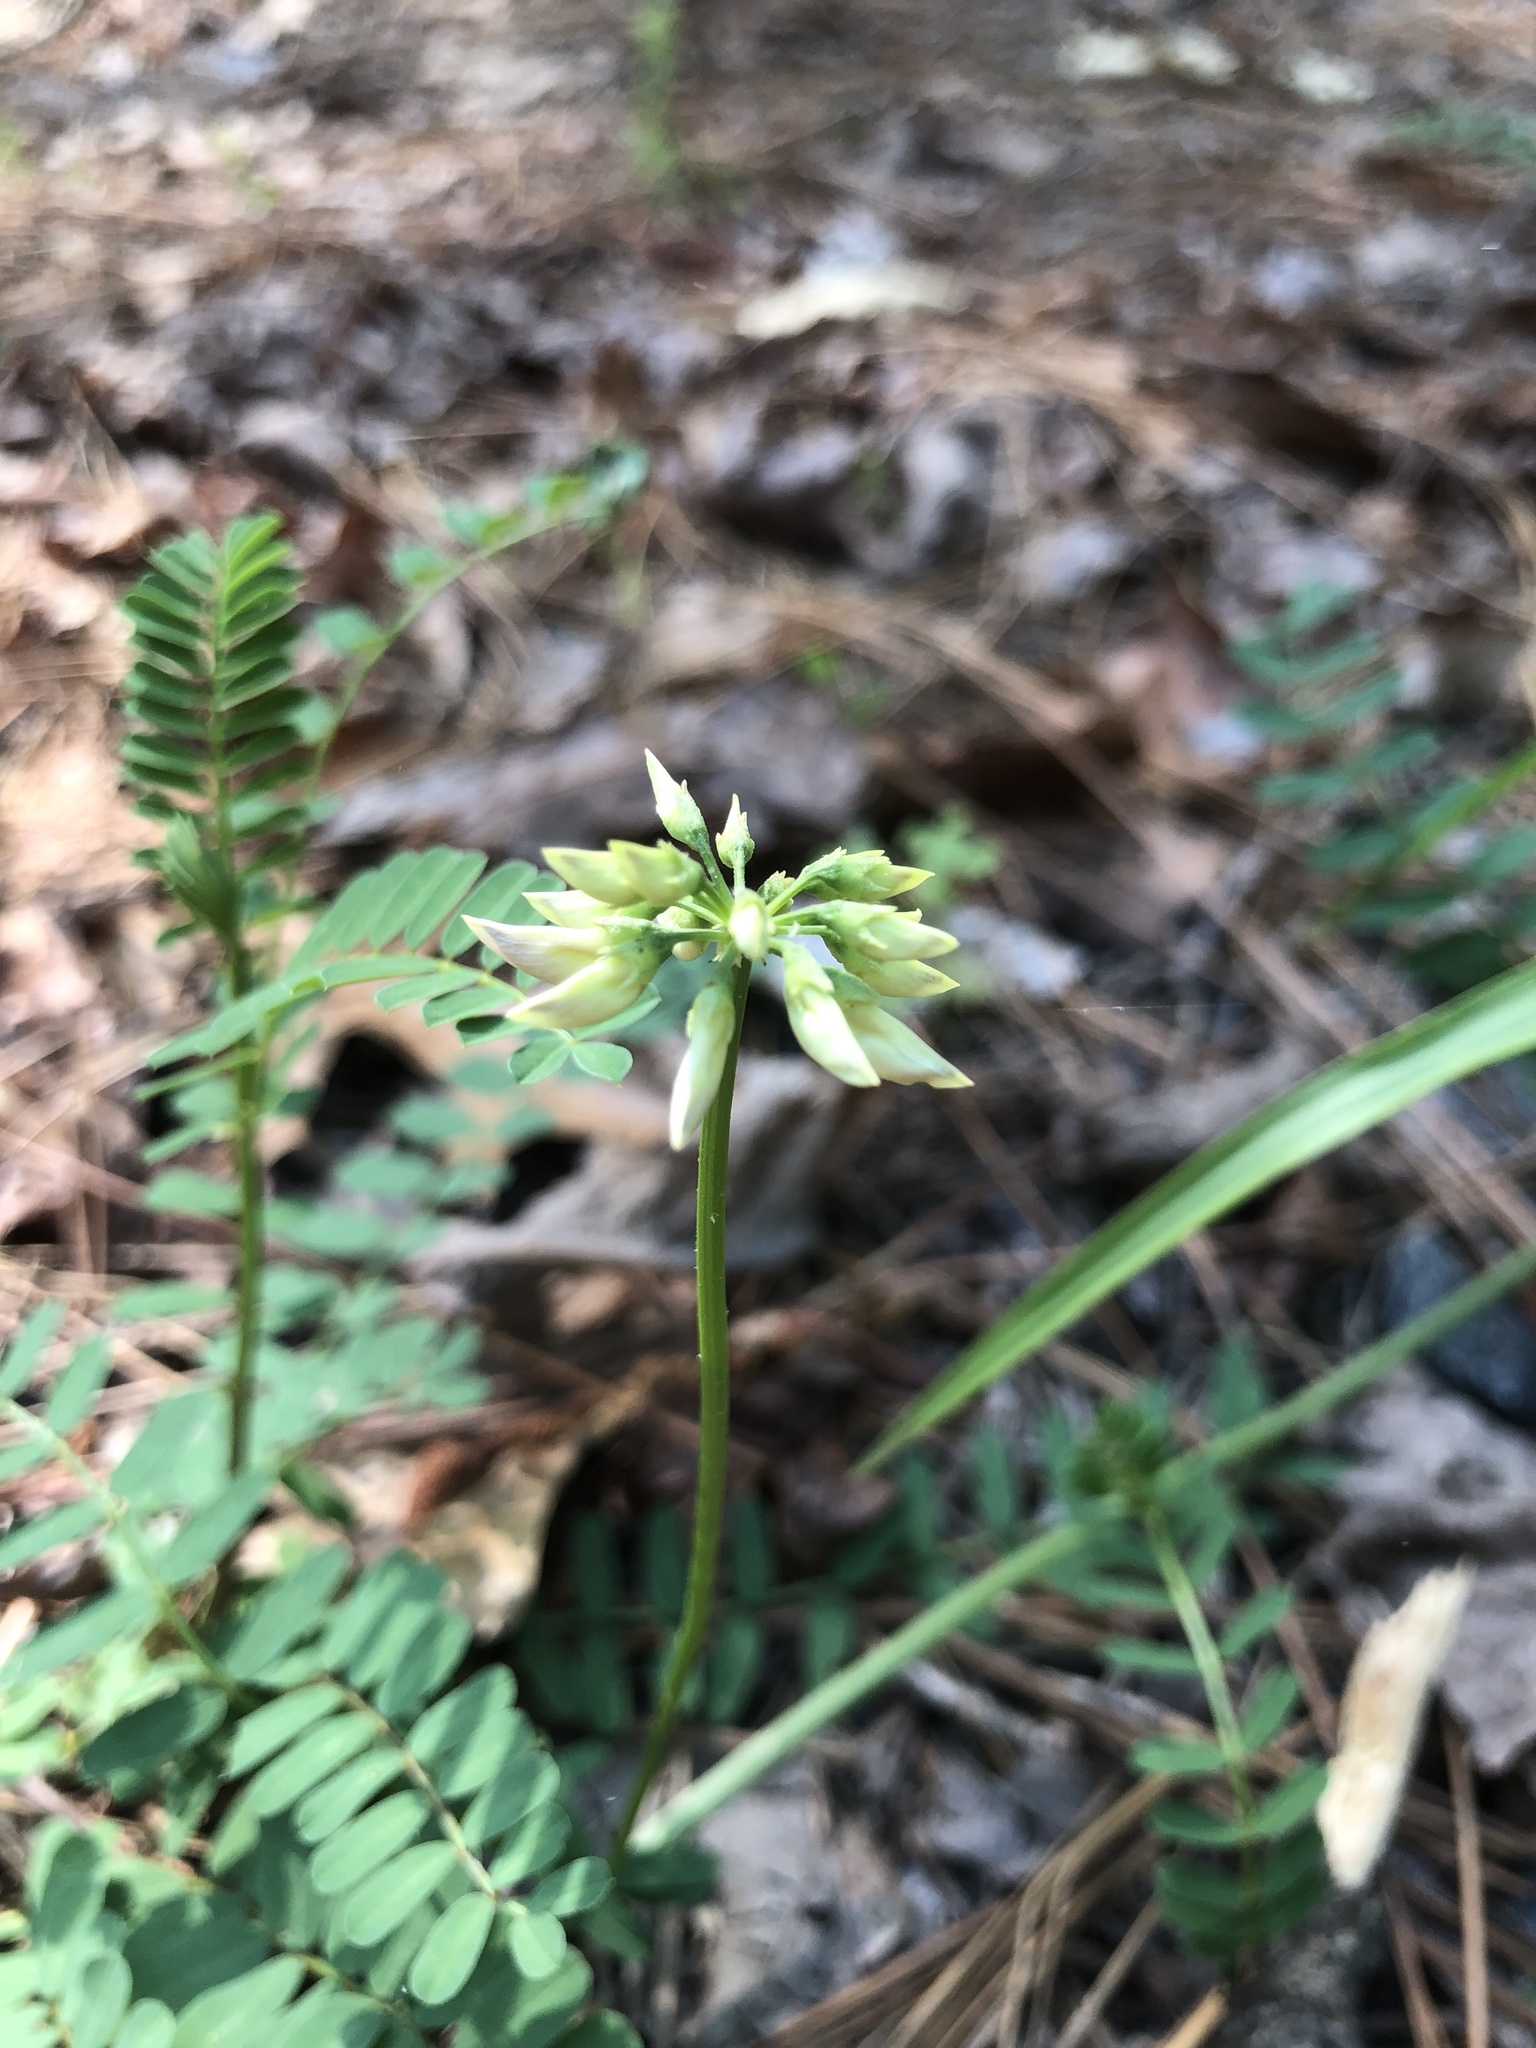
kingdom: Plantae
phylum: Tracheophyta
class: Magnoliopsida
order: Fabales
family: Fabaceae
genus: Coronilla
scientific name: Coronilla varia
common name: Crownvetch
